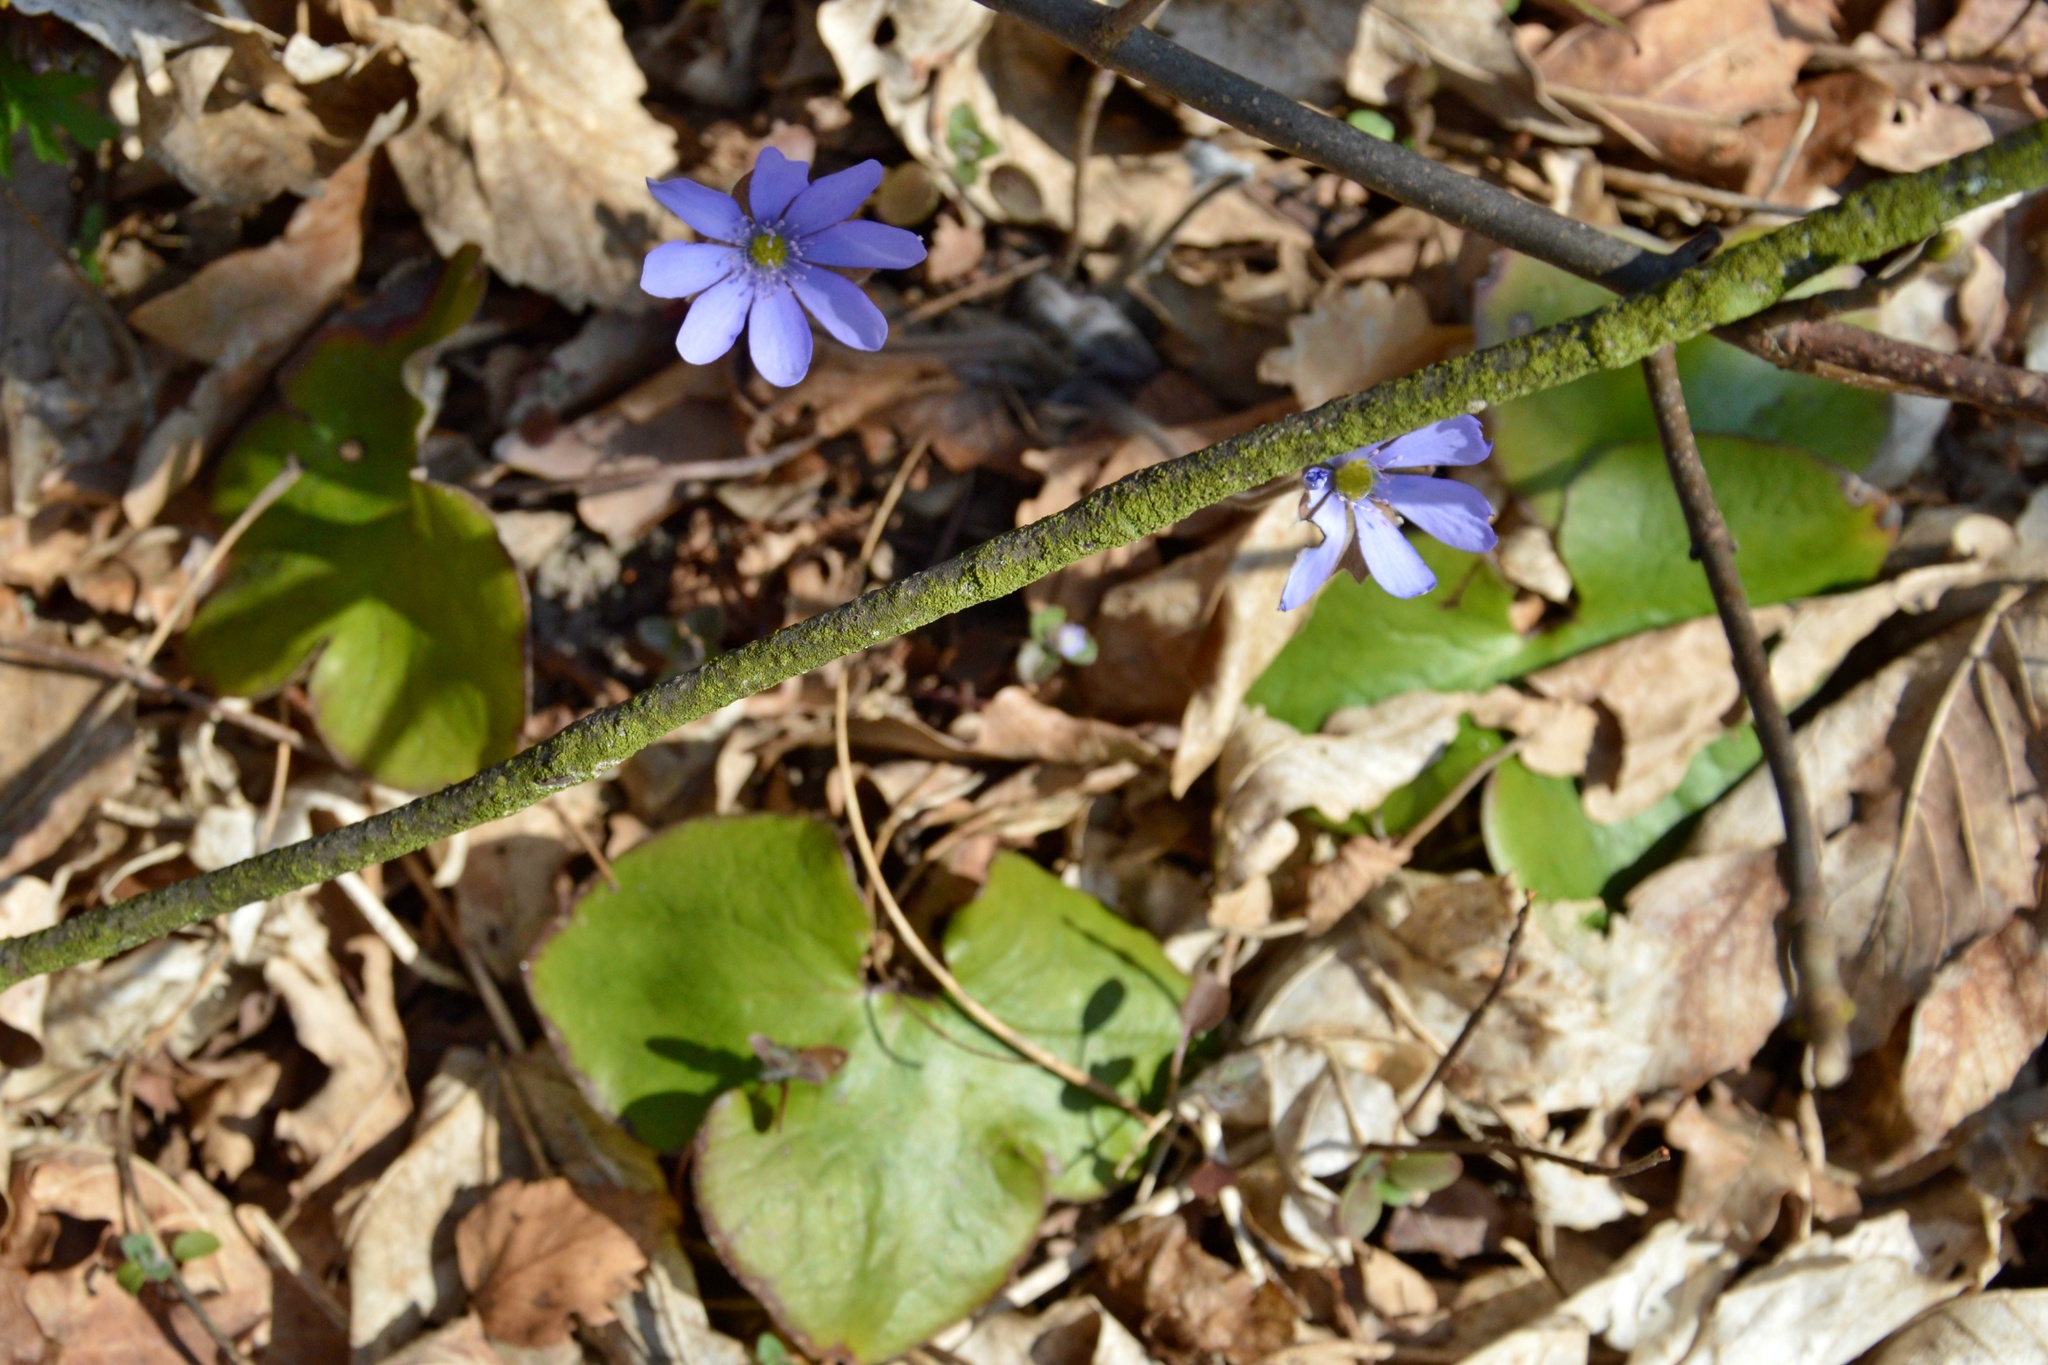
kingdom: Plantae
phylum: Tracheophyta
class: Magnoliopsida
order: Ranunculales
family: Ranunculaceae
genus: Hepatica
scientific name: Hepatica nobilis
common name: Liverleaf
